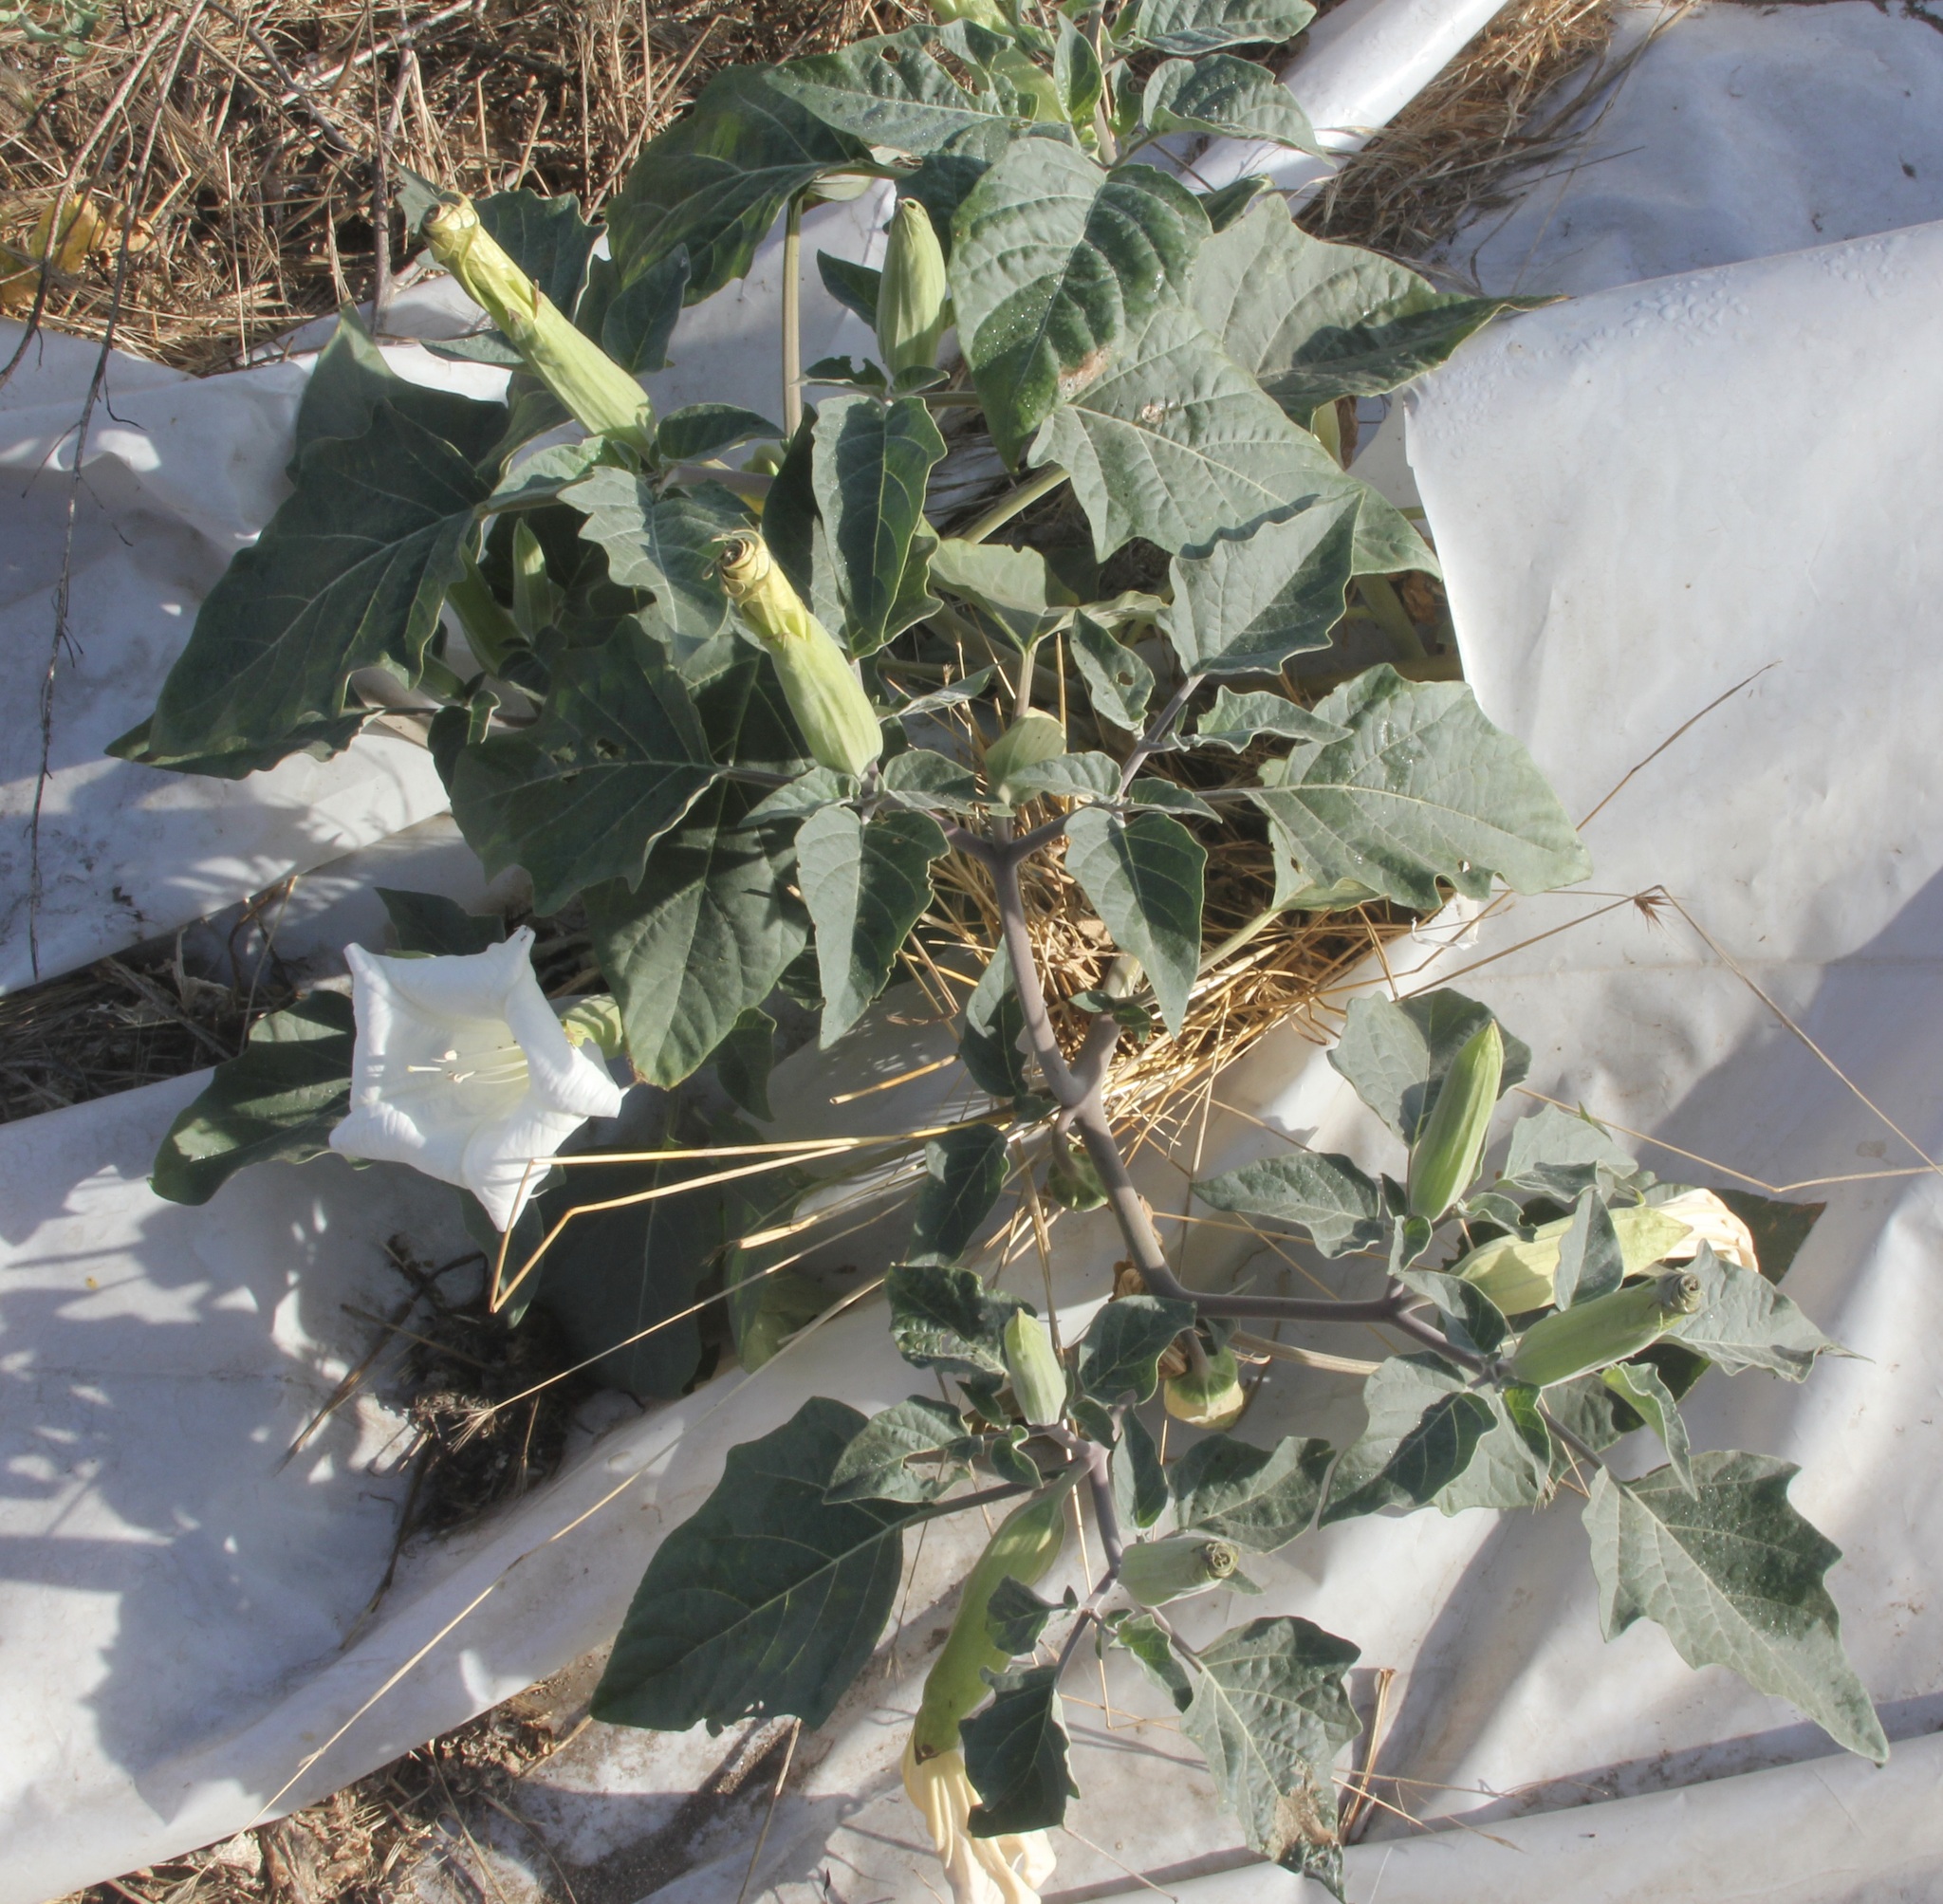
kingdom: Plantae
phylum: Tracheophyta
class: Magnoliopsida
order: Solanales
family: Solanaceae
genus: Datura
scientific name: Datura wrightii
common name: Sacred thorn-apple
